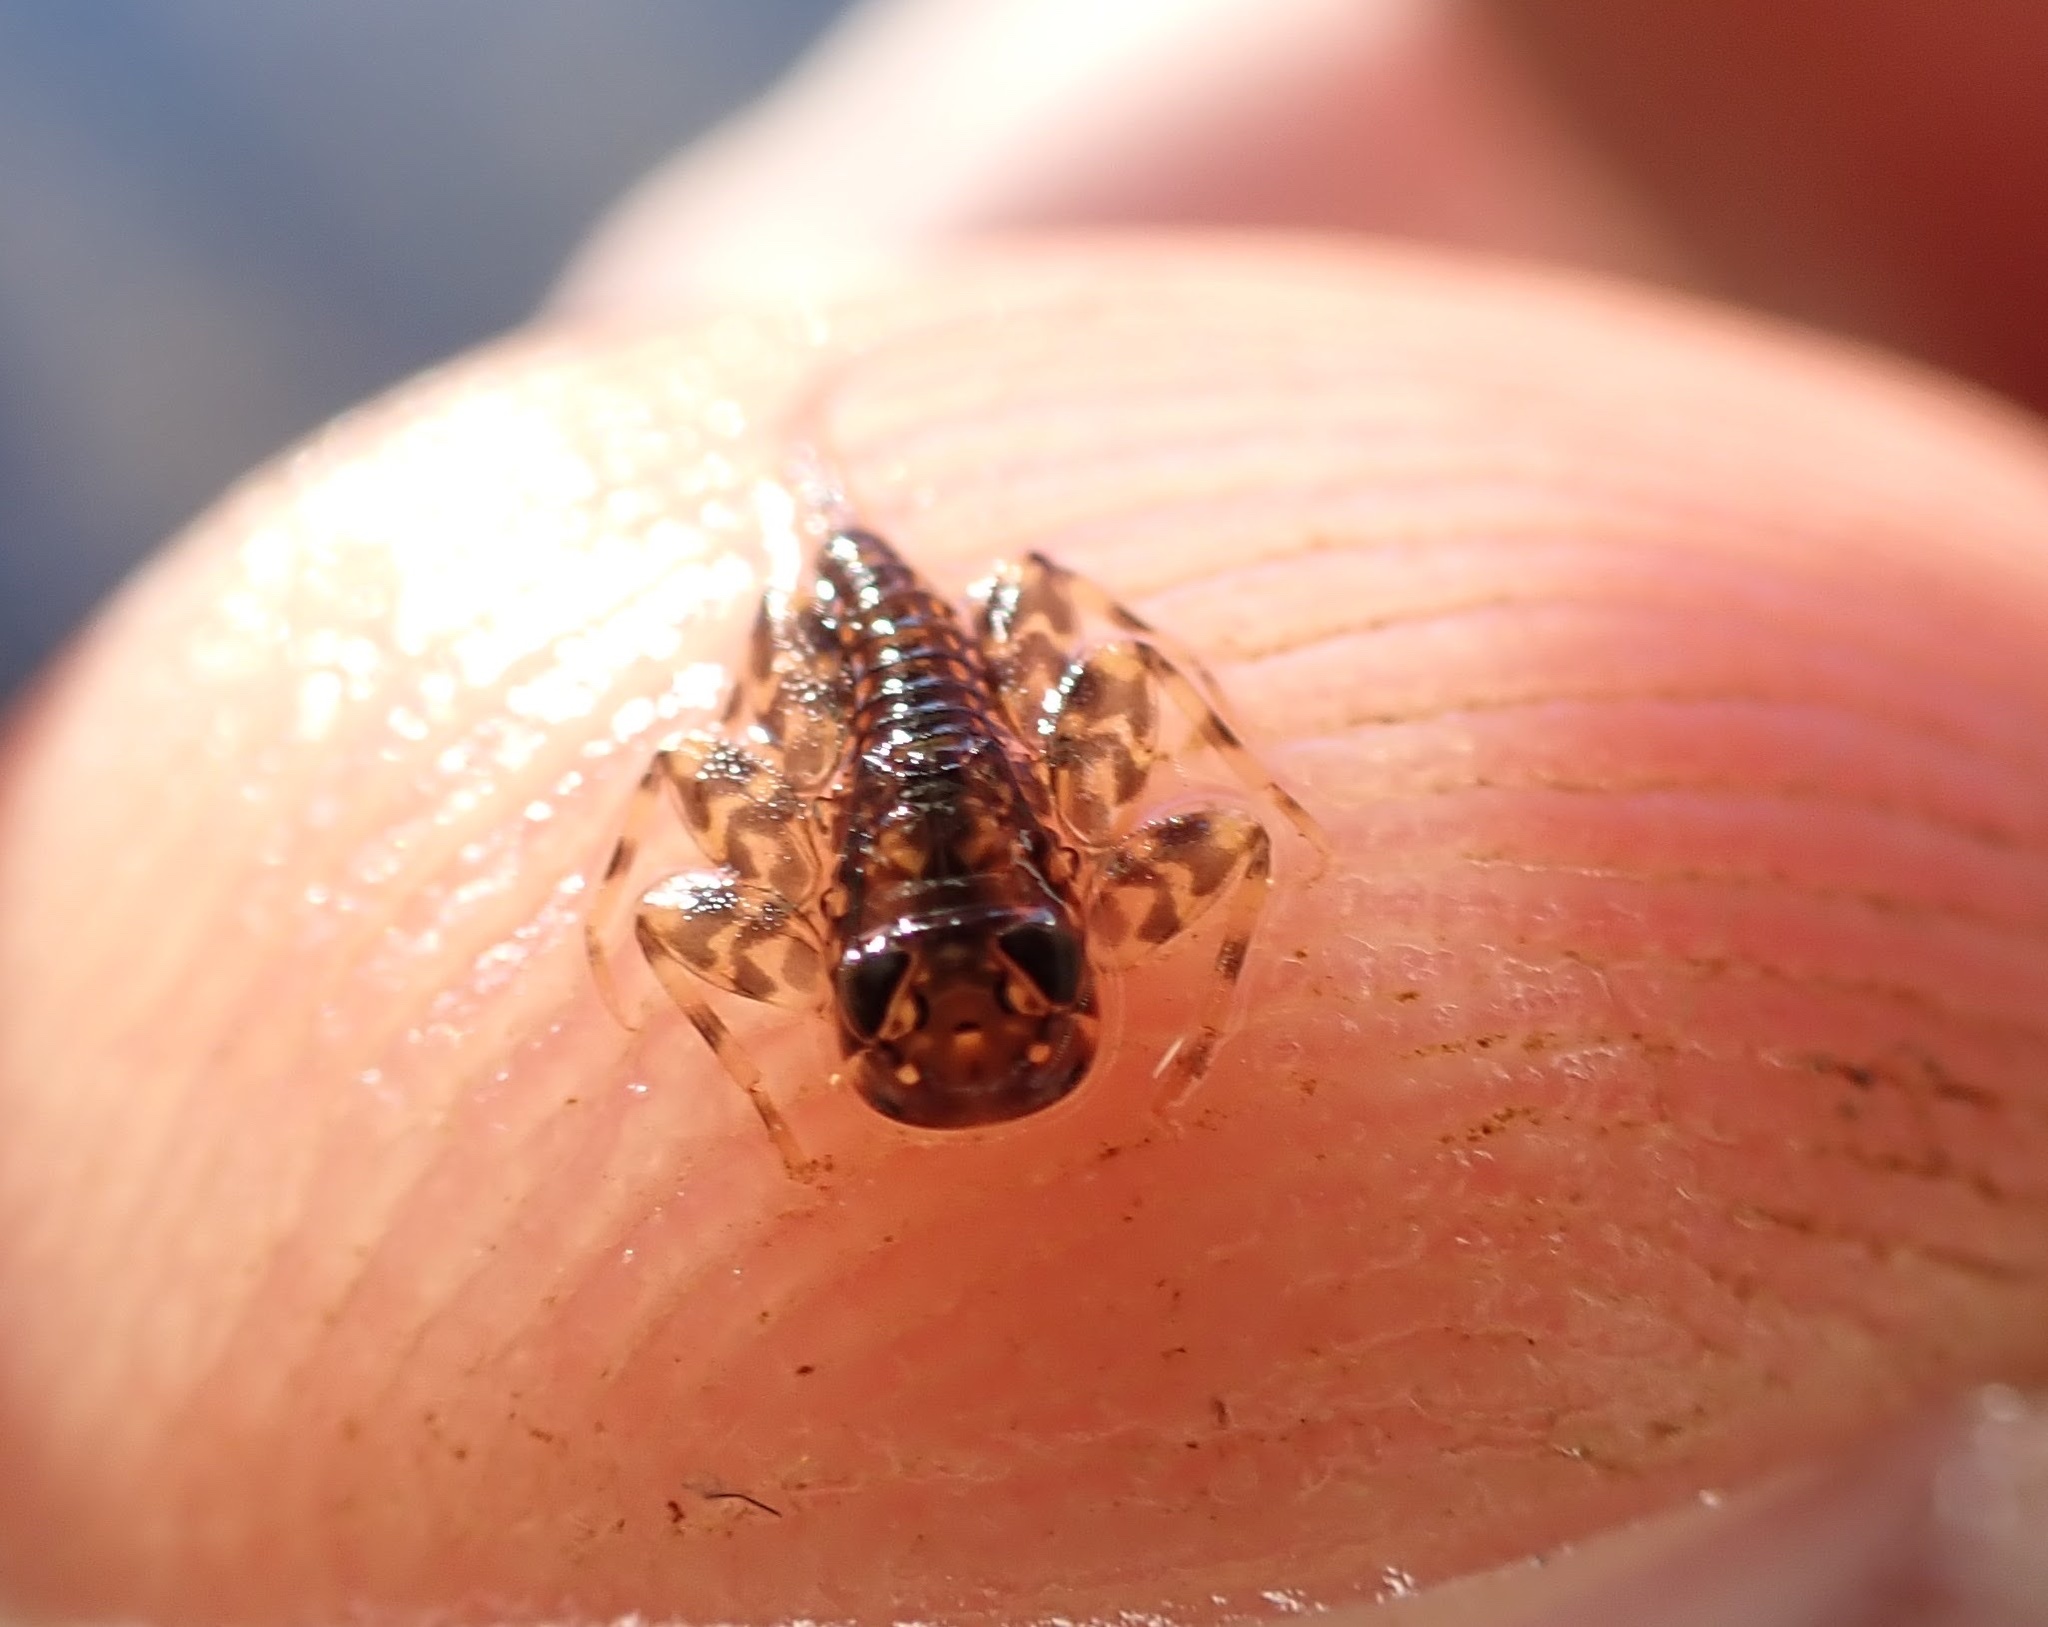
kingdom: Animalia
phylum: Arthropoda
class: Insecta
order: Ephemeroptera
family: Heptageniidae
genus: Heptagenia
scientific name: Heptagenia sulphurea
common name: Yellow may dun
